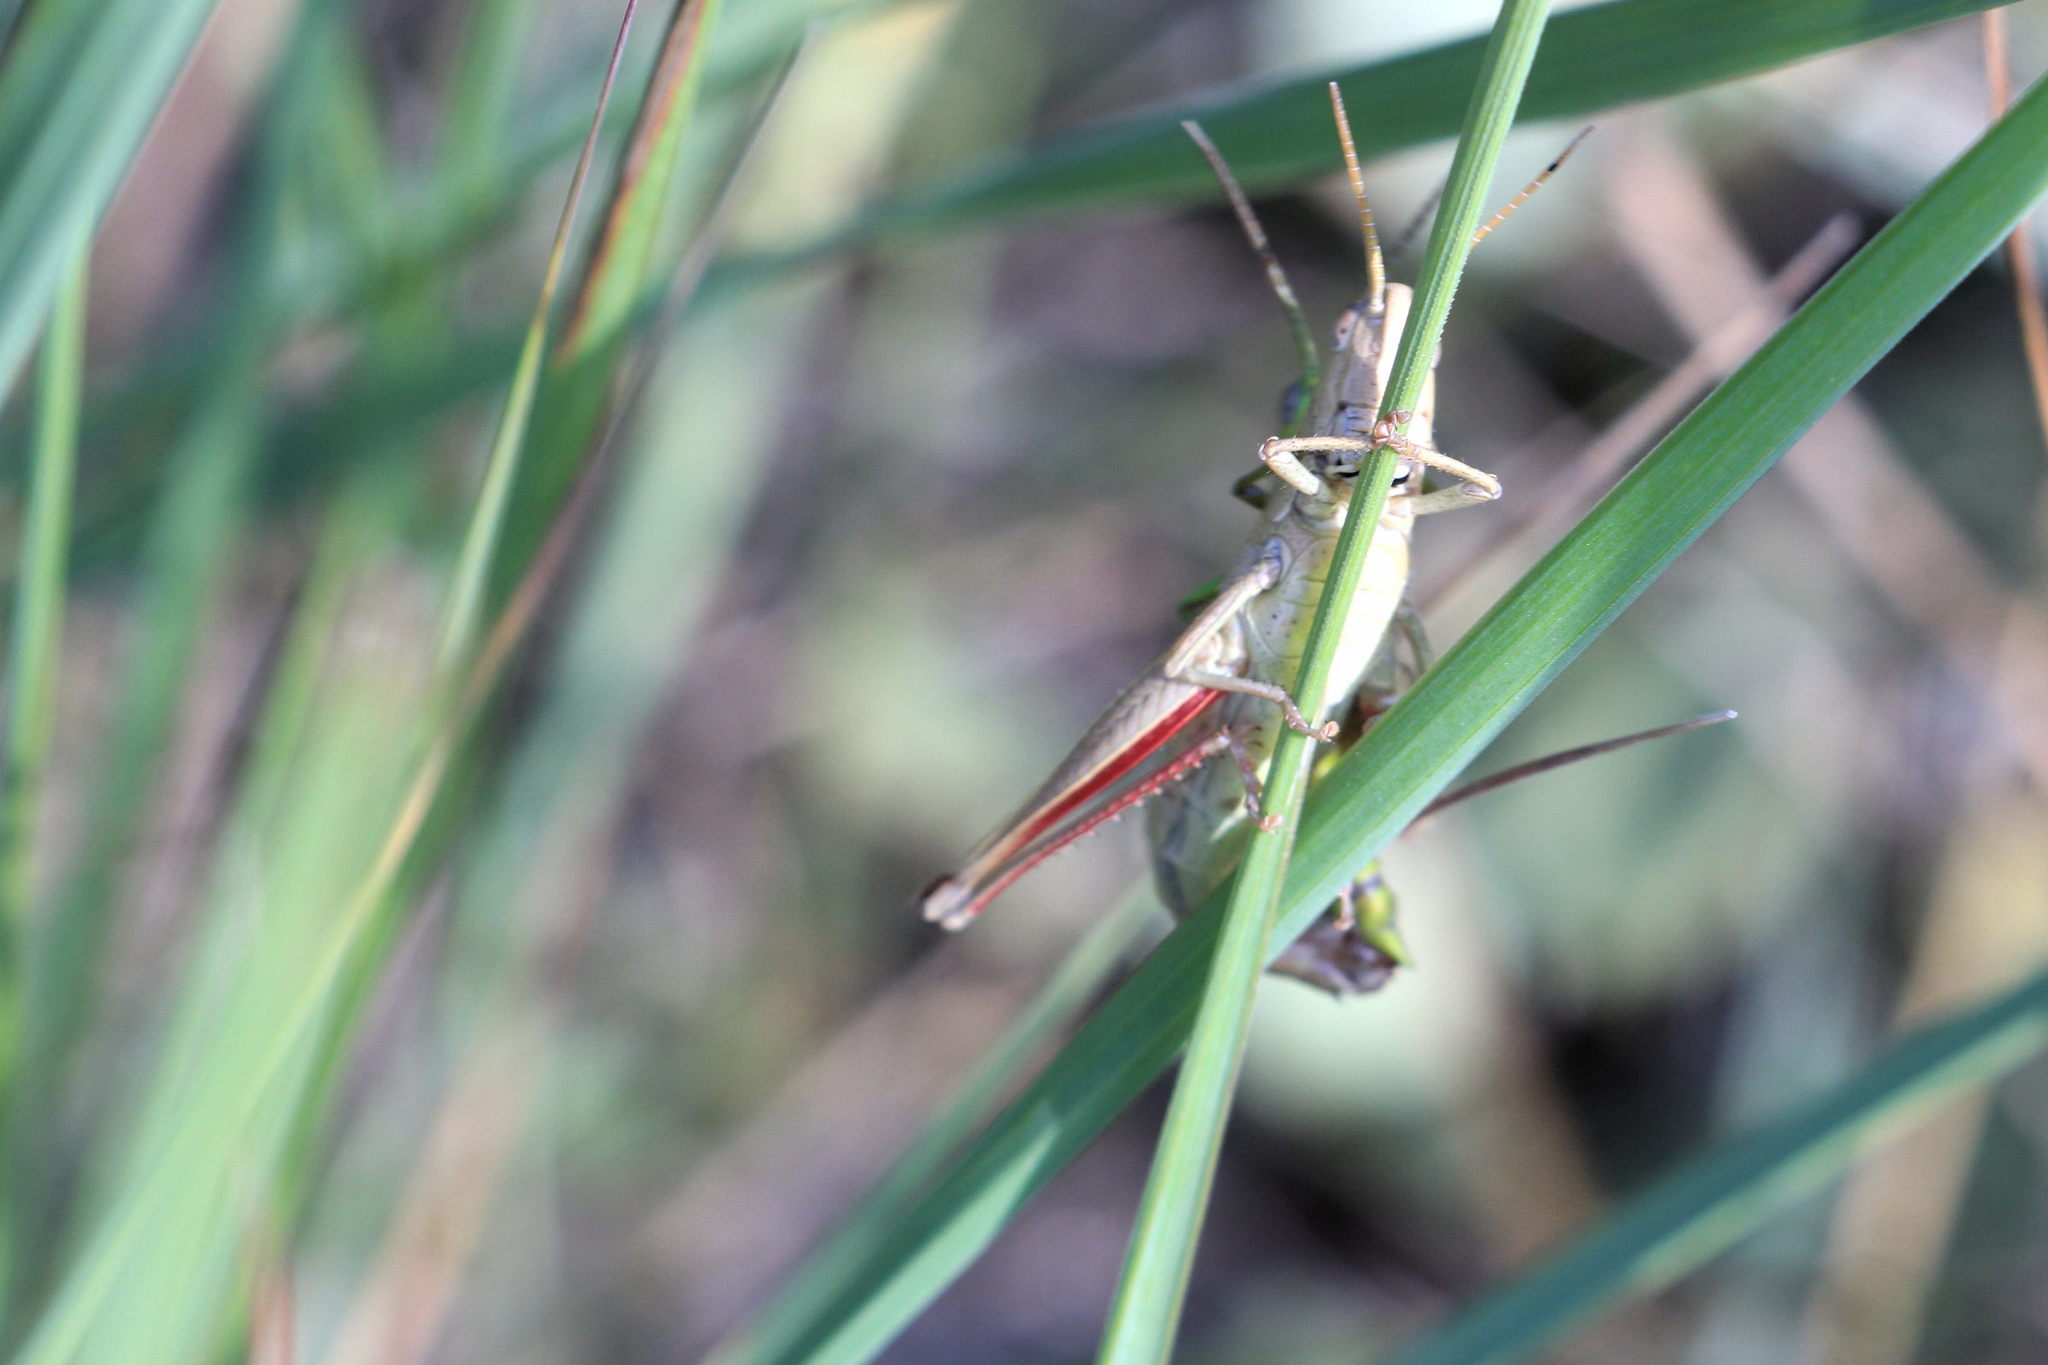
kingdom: Animalia
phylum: Arthropoda
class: Insecta
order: Orthoptera
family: Acrididae
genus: Chrysochraon
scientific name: Chrysochraon dispar
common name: Large gold grasshopper
